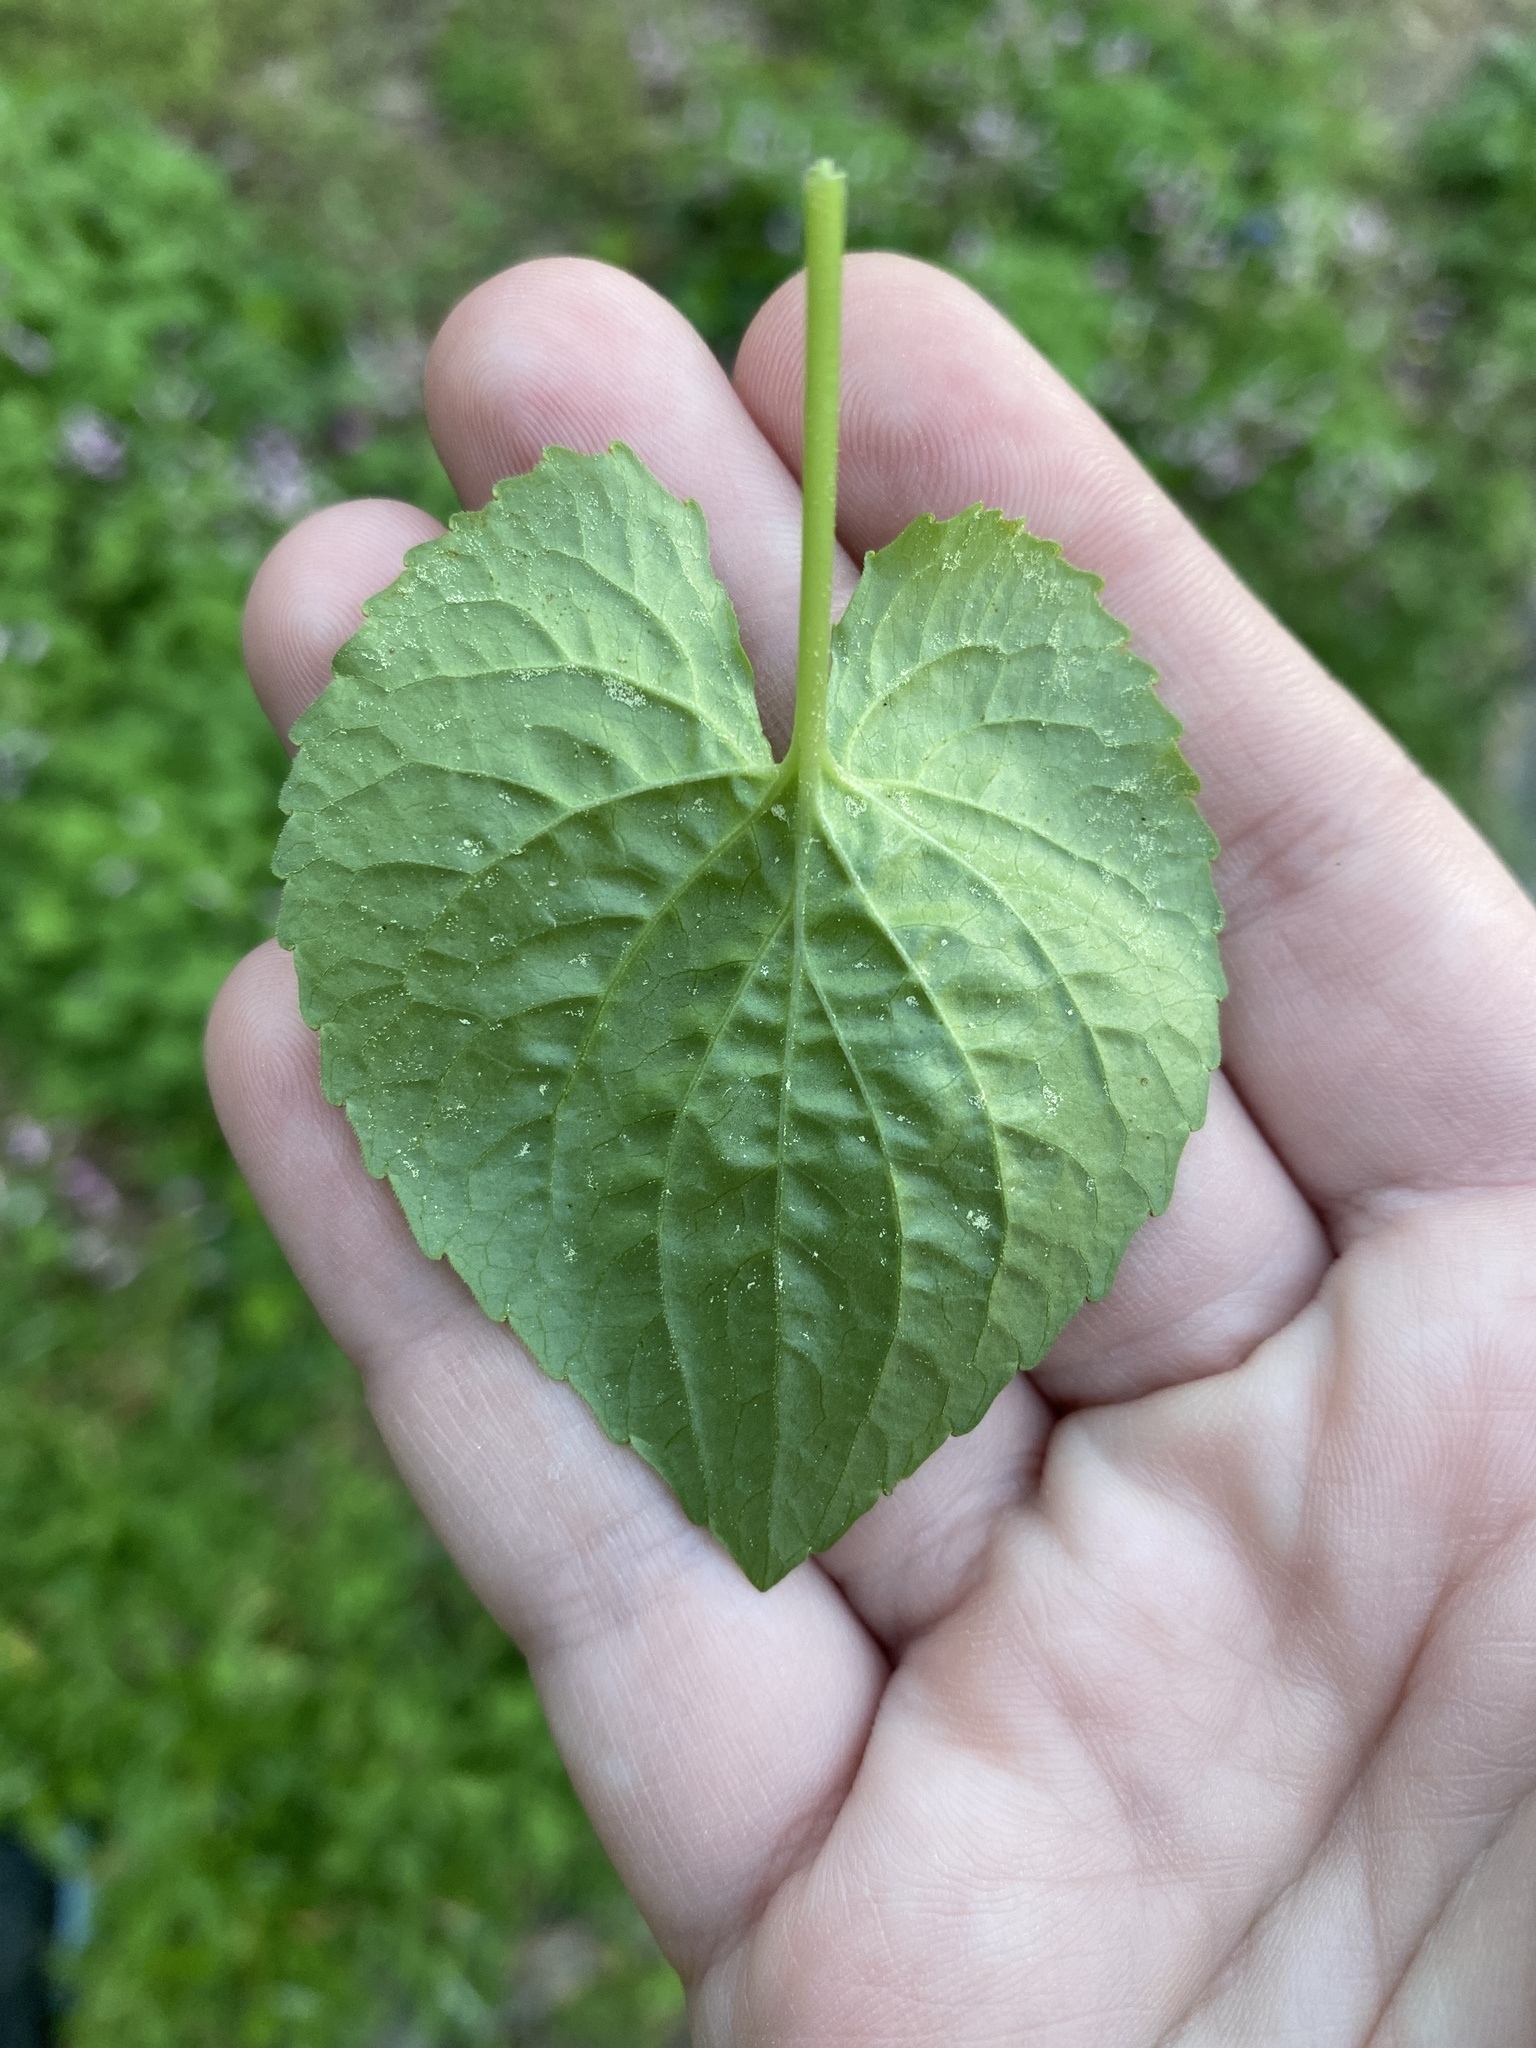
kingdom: Plantae
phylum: Tracheophyta
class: Magnoliopsida
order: Malpighiales
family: Violaceae
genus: Viola
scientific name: Viola sororia
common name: Dooryard violet
